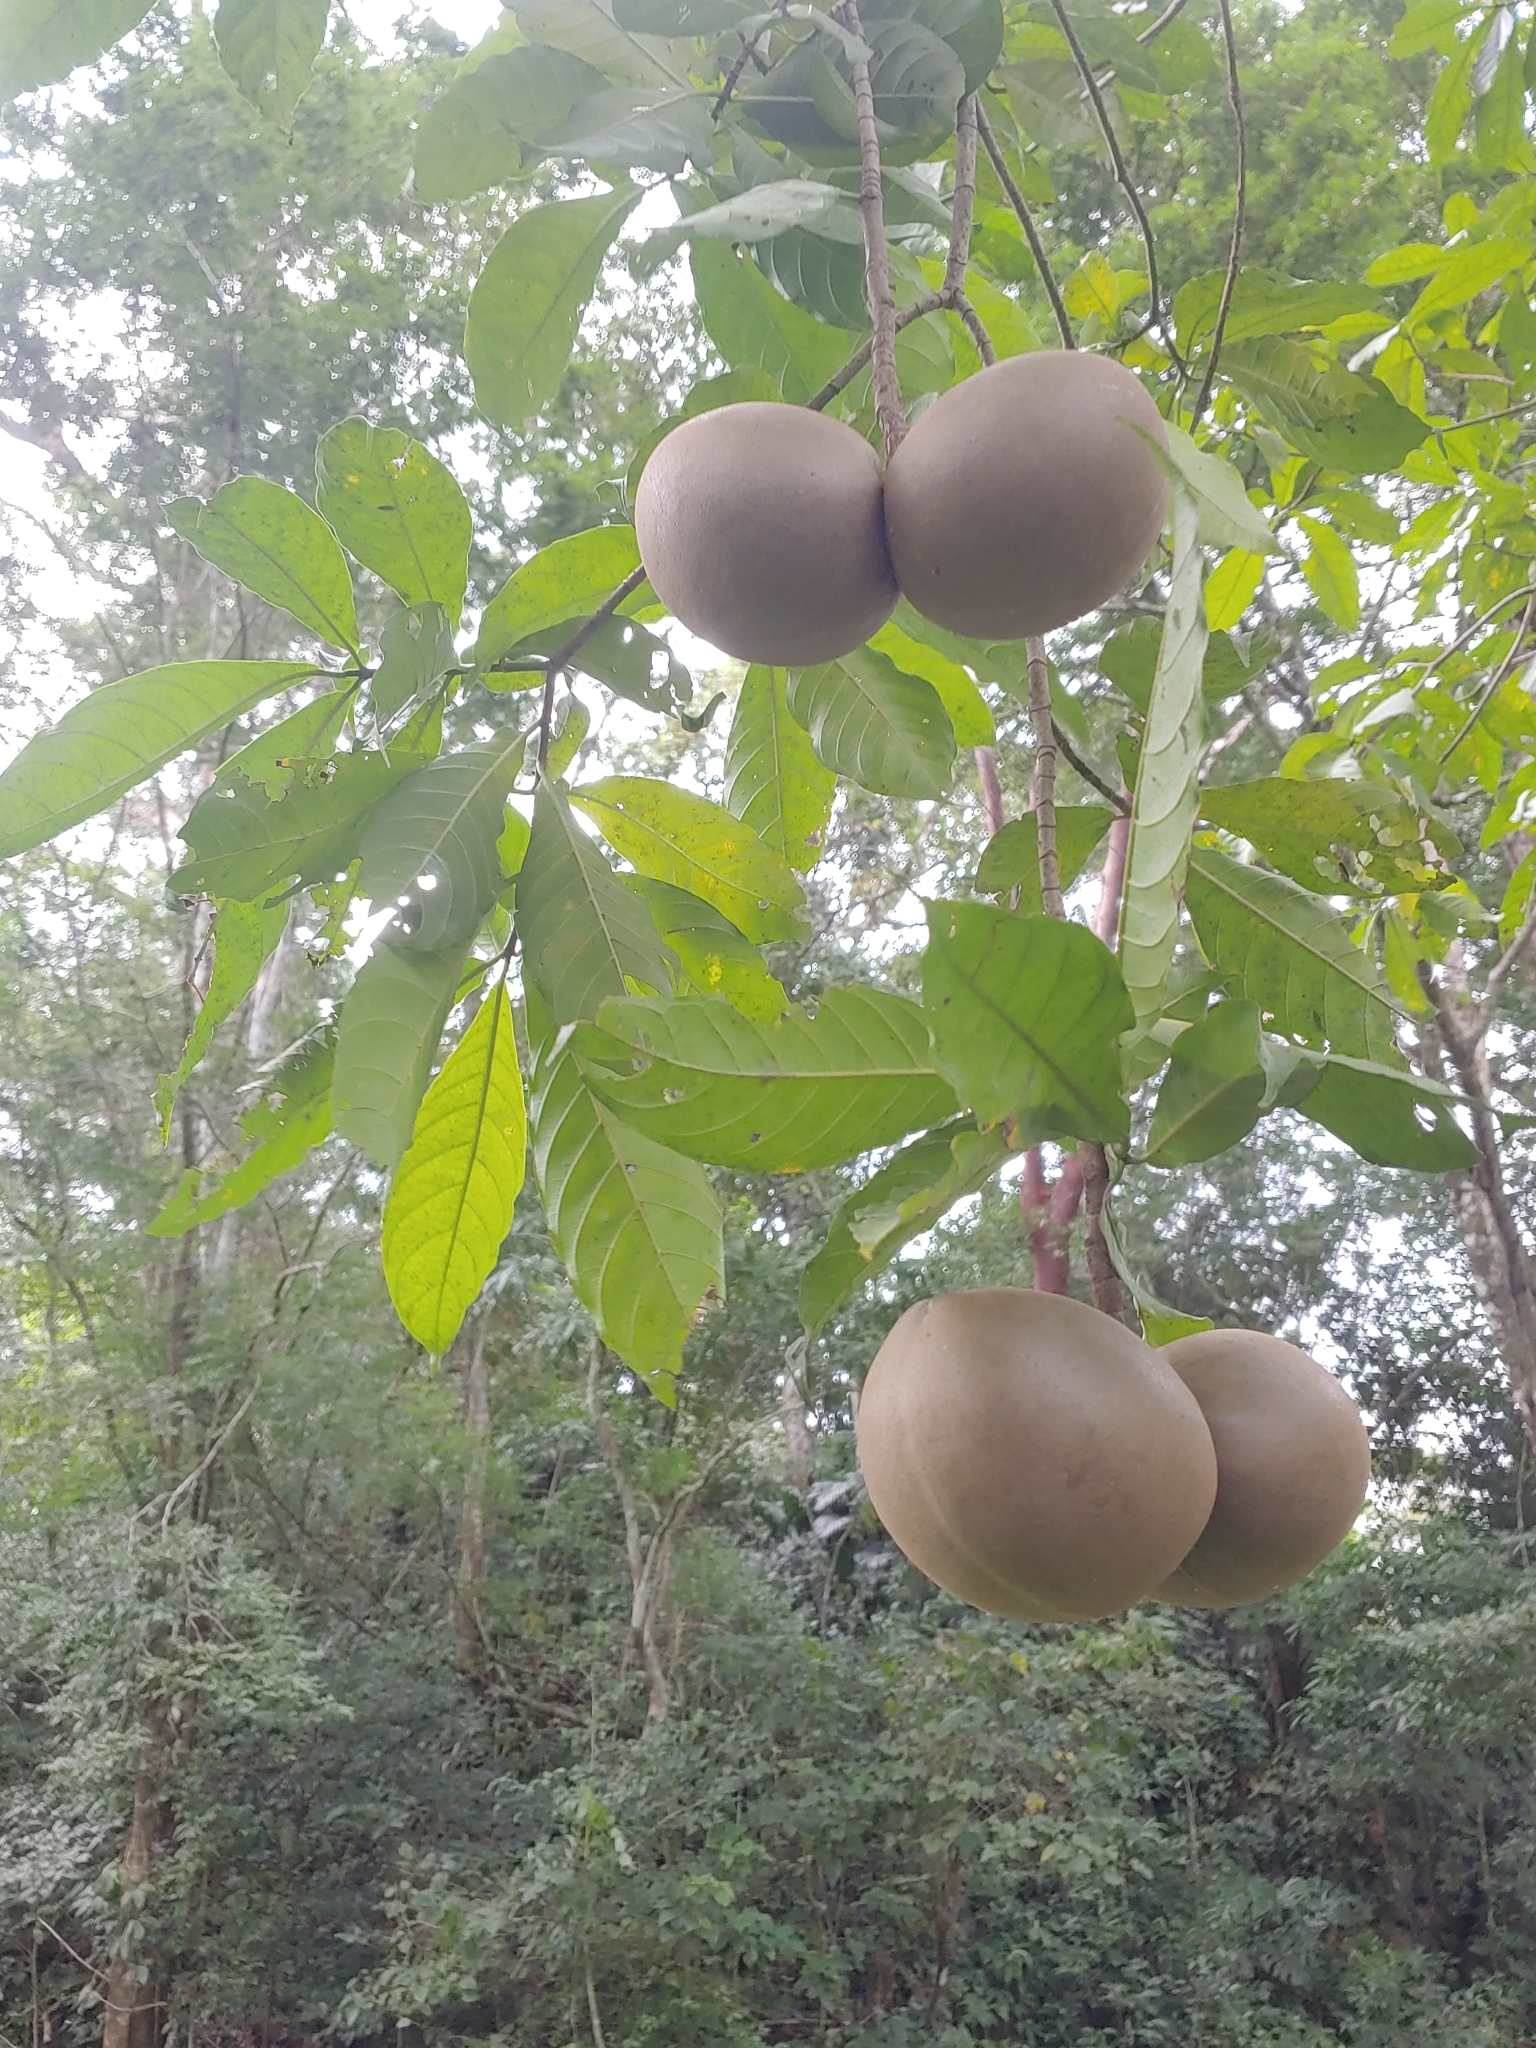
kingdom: Plantae
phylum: Tracheophyta
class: Magnoliopsida
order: Gentianales
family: Apocynaceae
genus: Tabernaemontana
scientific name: Tabernaemontana donnell-smithii
